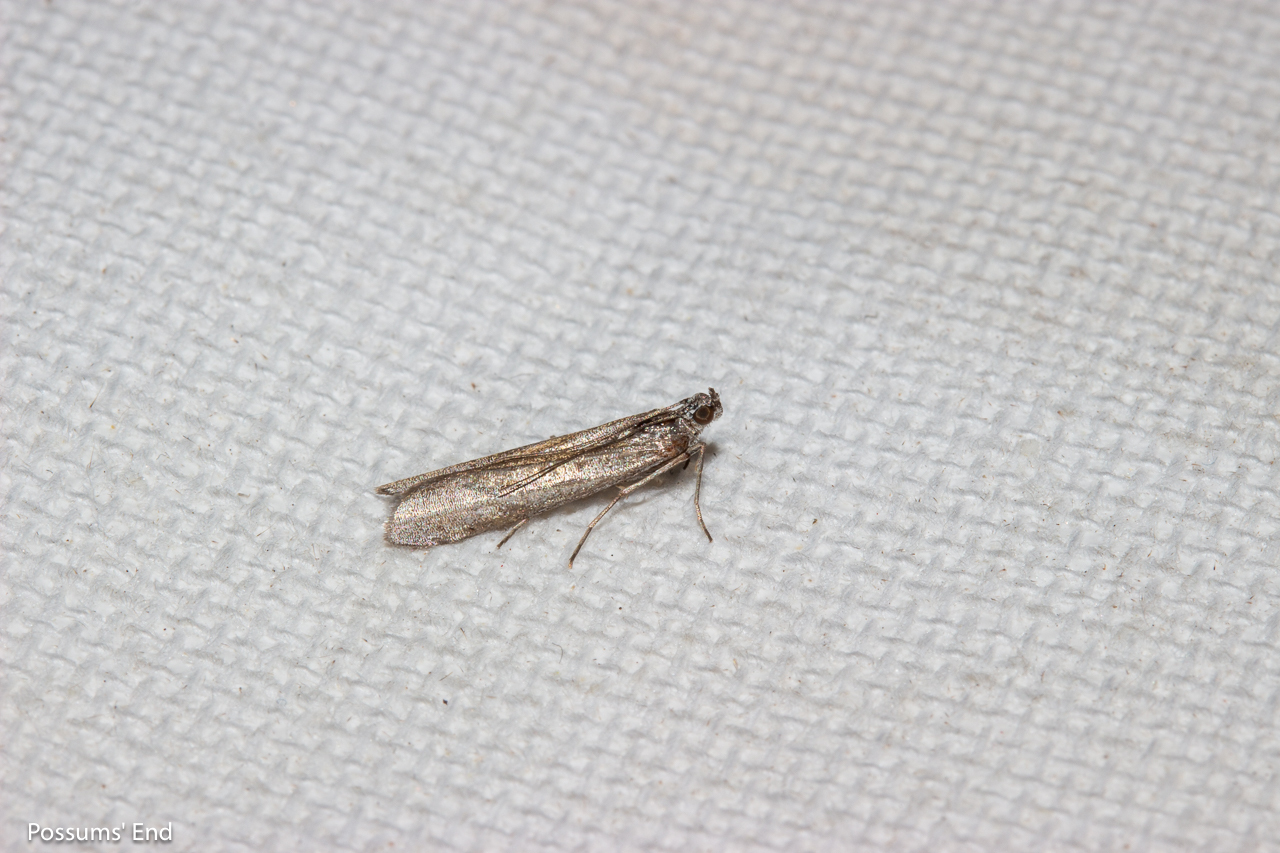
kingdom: Animalia
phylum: Arthropoda
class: Insecta
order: Lepidoptera
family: Pyralidae
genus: Patagoniodes
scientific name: Patagoniodes farinaria
